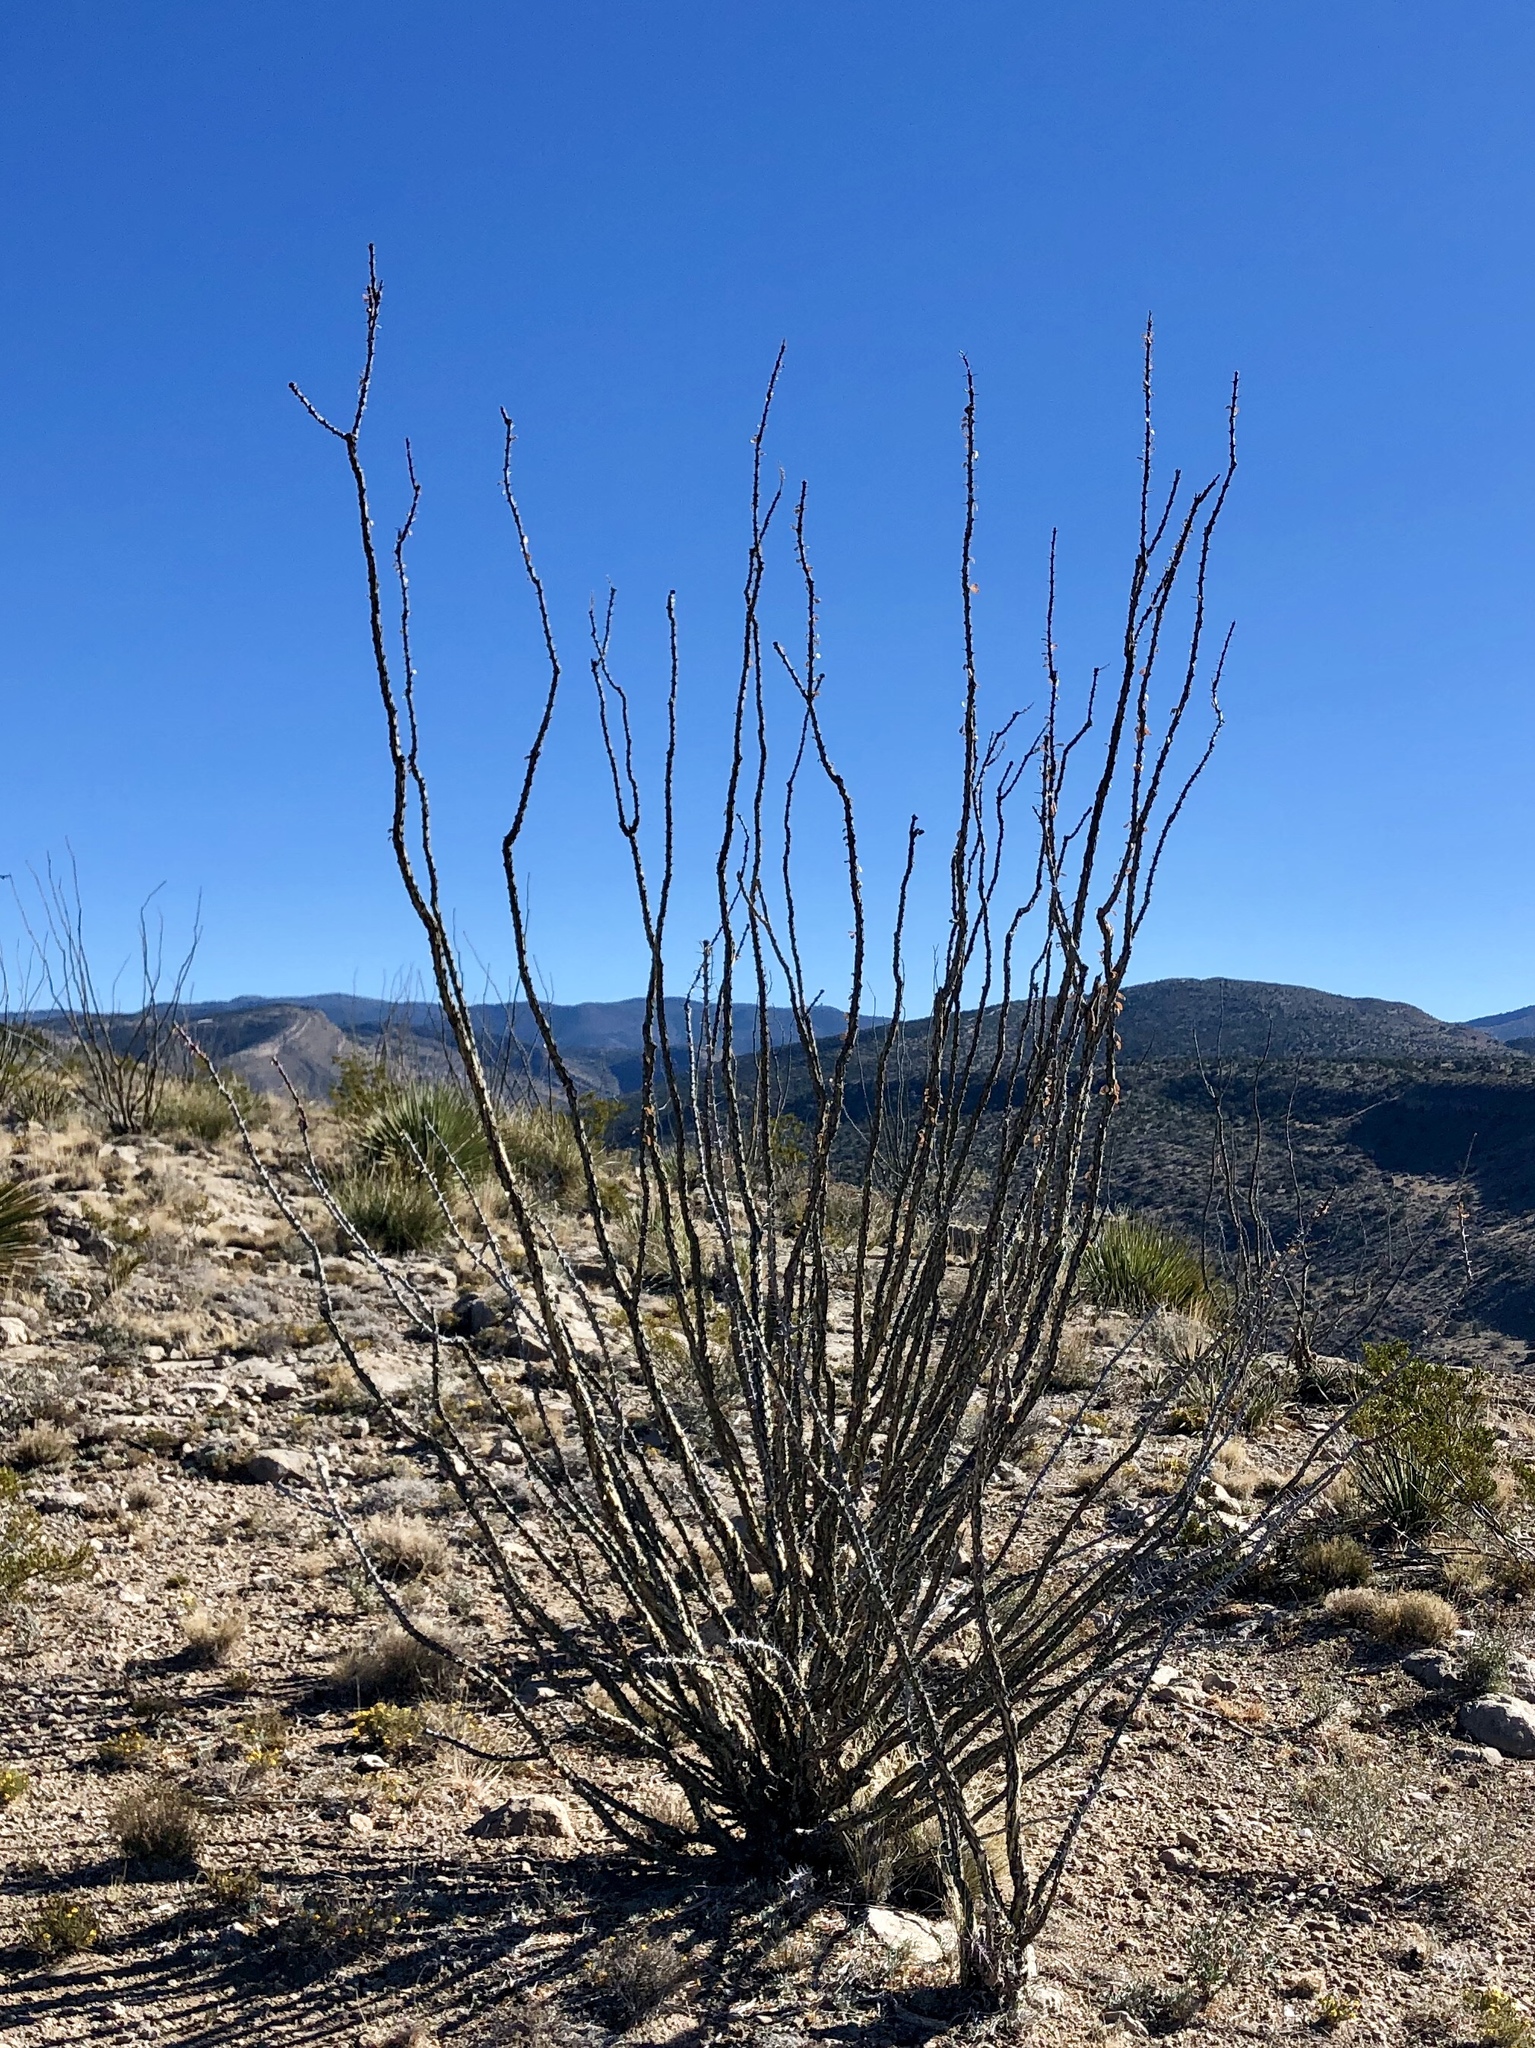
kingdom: Plantae
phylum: Tracheophyta
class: Magnoliopsida
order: Ericales
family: Fouquieriaceae
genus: Fouquieria
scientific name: Fouquieria splendens
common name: Vine-cactus
